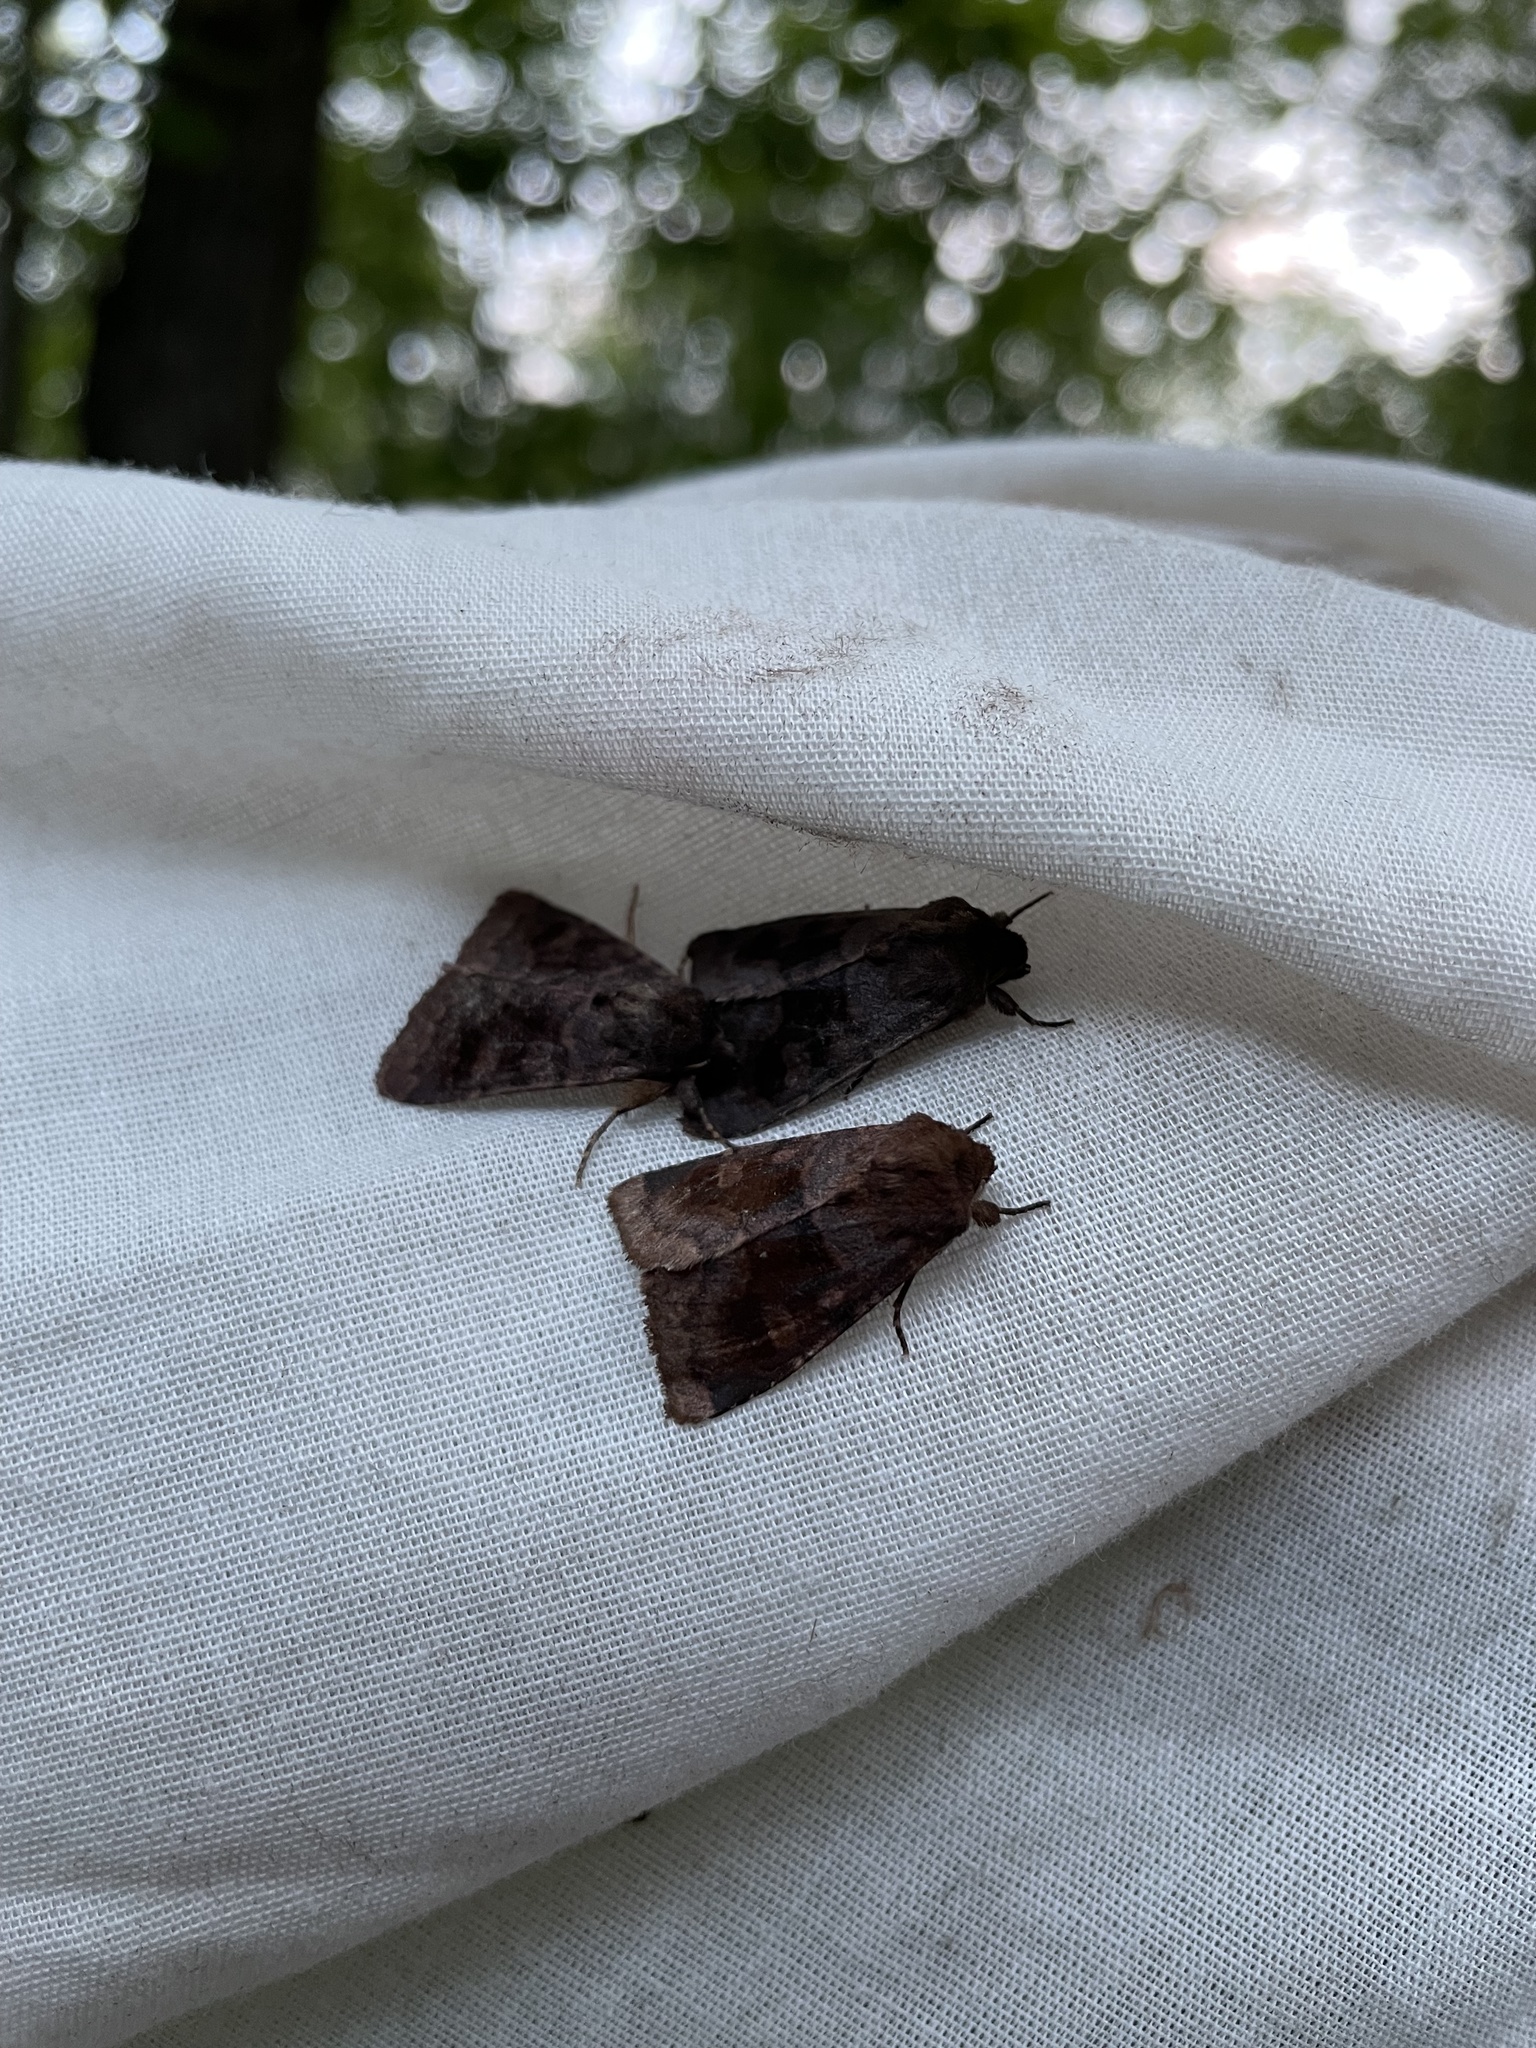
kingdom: Animalia
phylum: Arthropoda
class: Insecta
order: Lepidoptera
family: Noctuidae
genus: Nephelodes
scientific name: Nephelodes minians
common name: Bronzed cutworm
